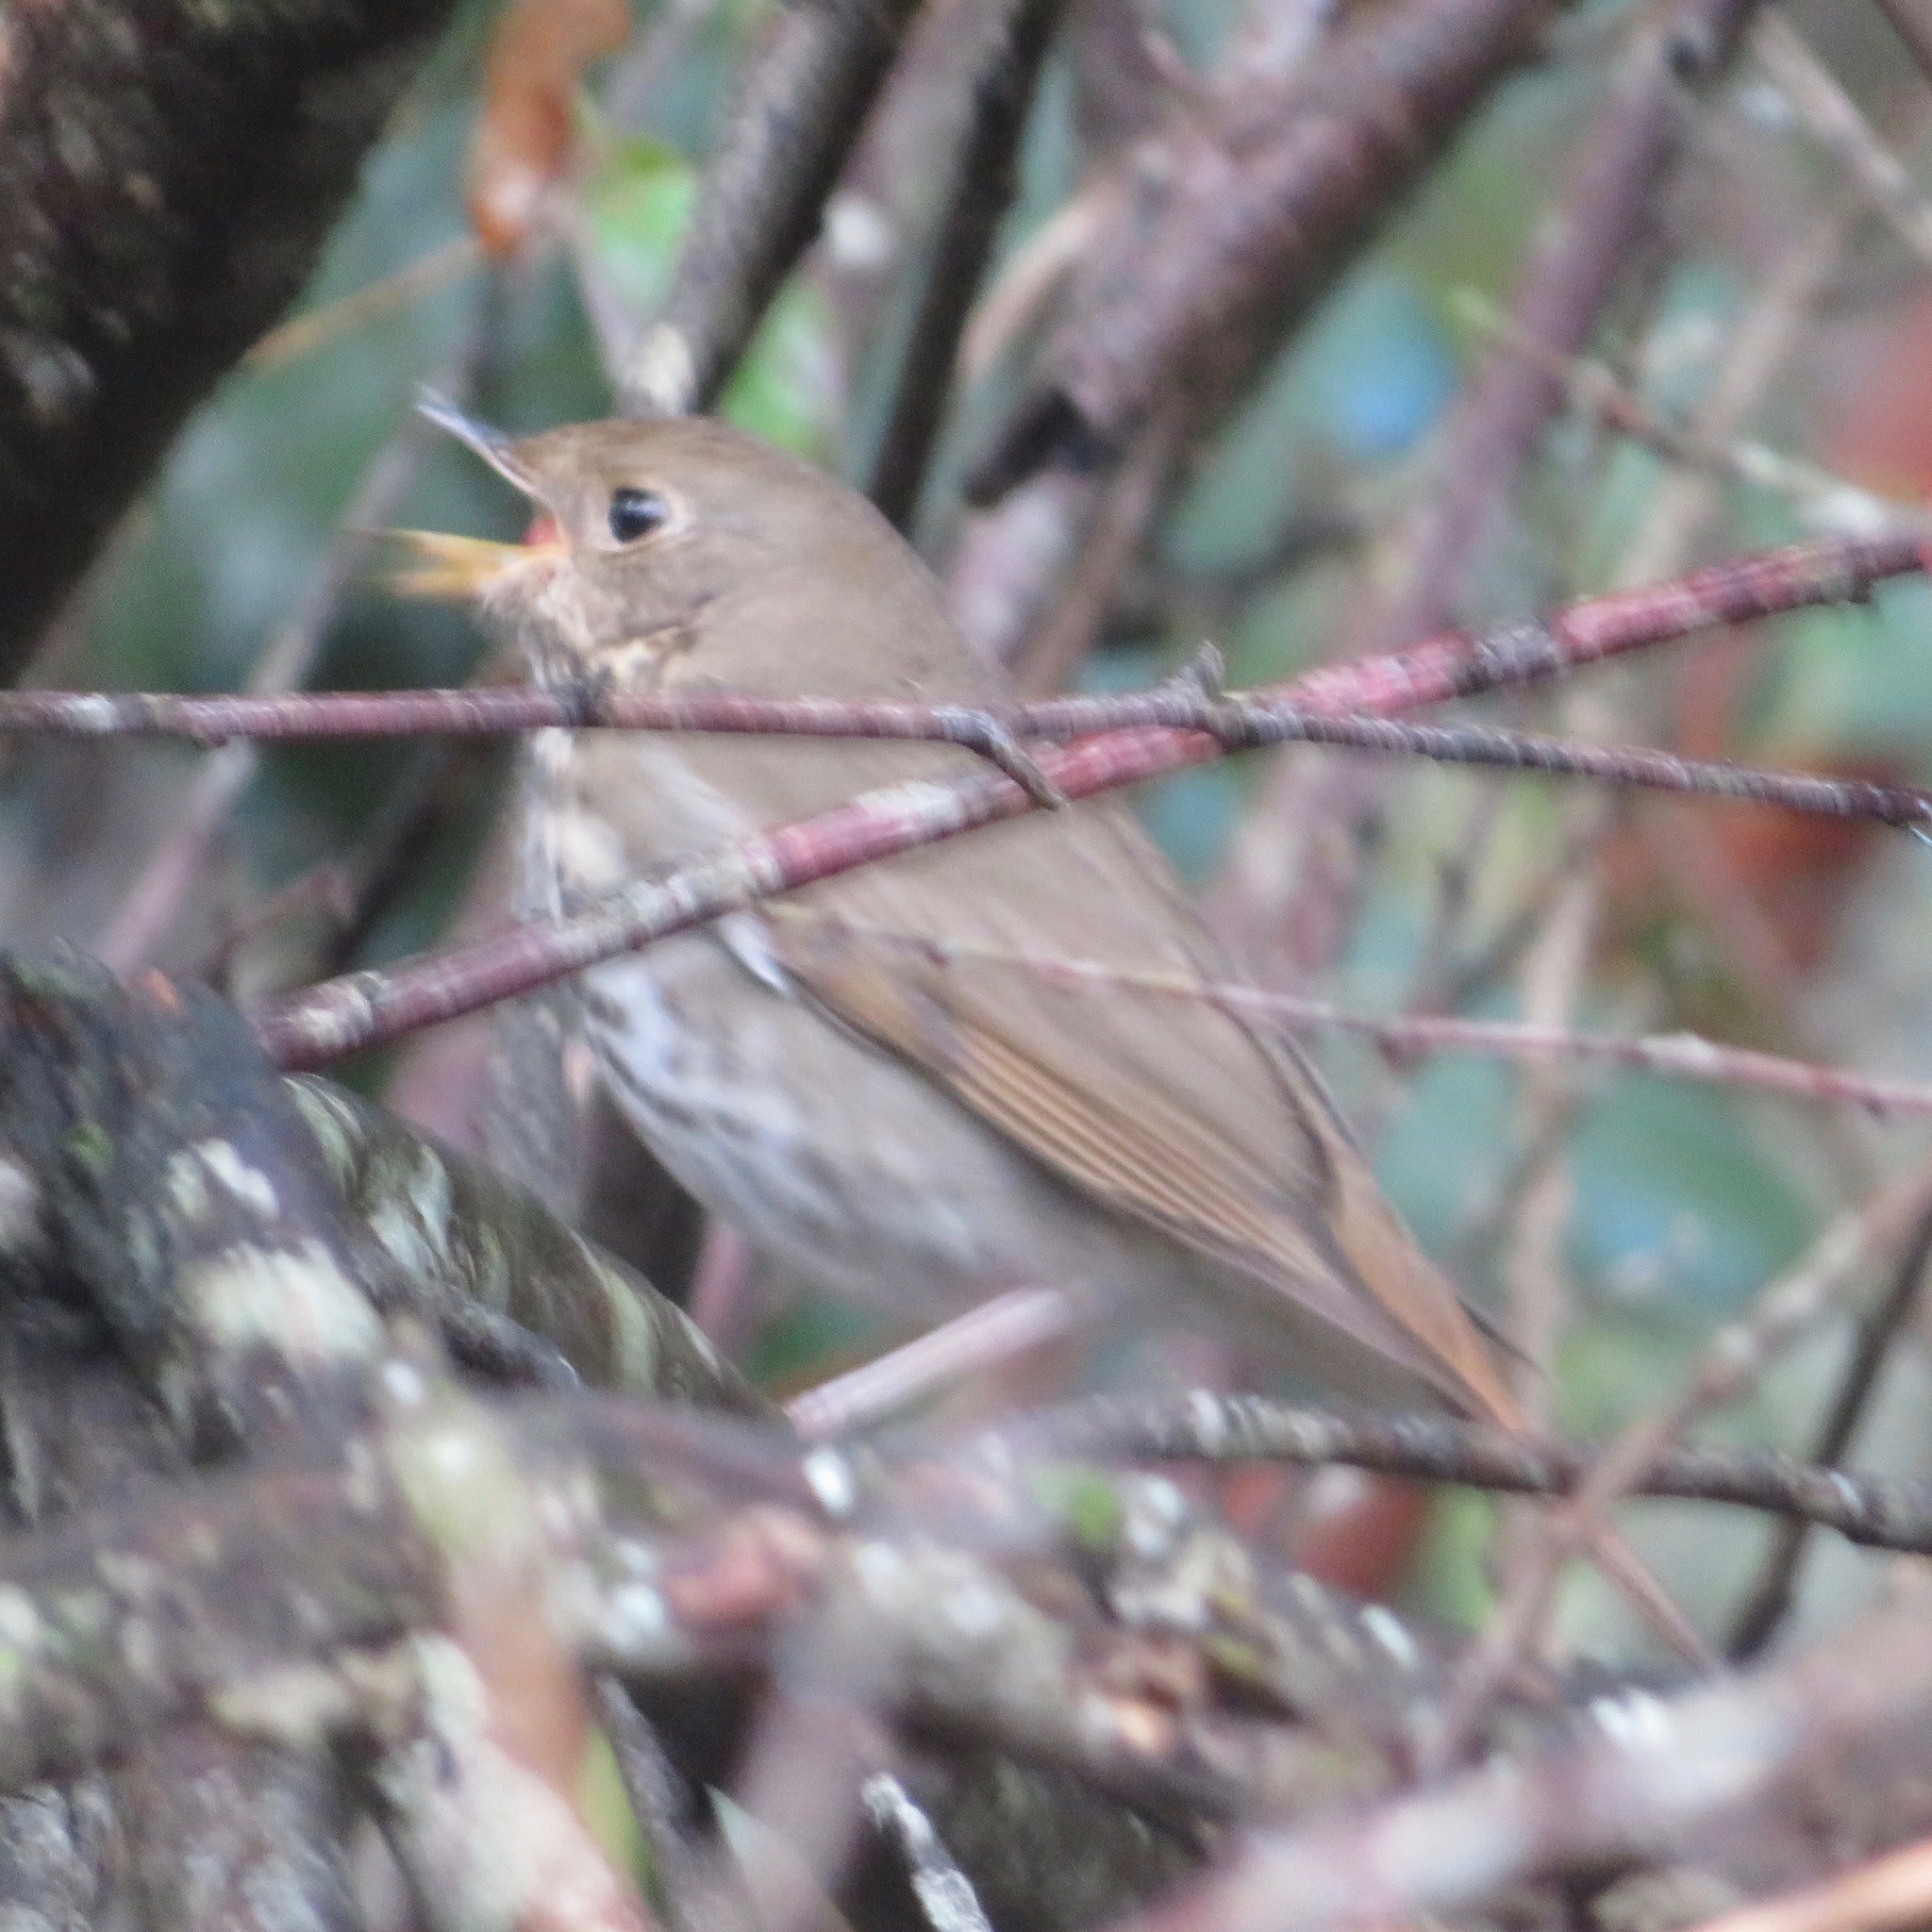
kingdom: Animalia
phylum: Chordata
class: Aves
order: Passeriformes
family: Turdidae
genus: Catharus
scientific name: Catharus guttatus
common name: Hermit thrush
